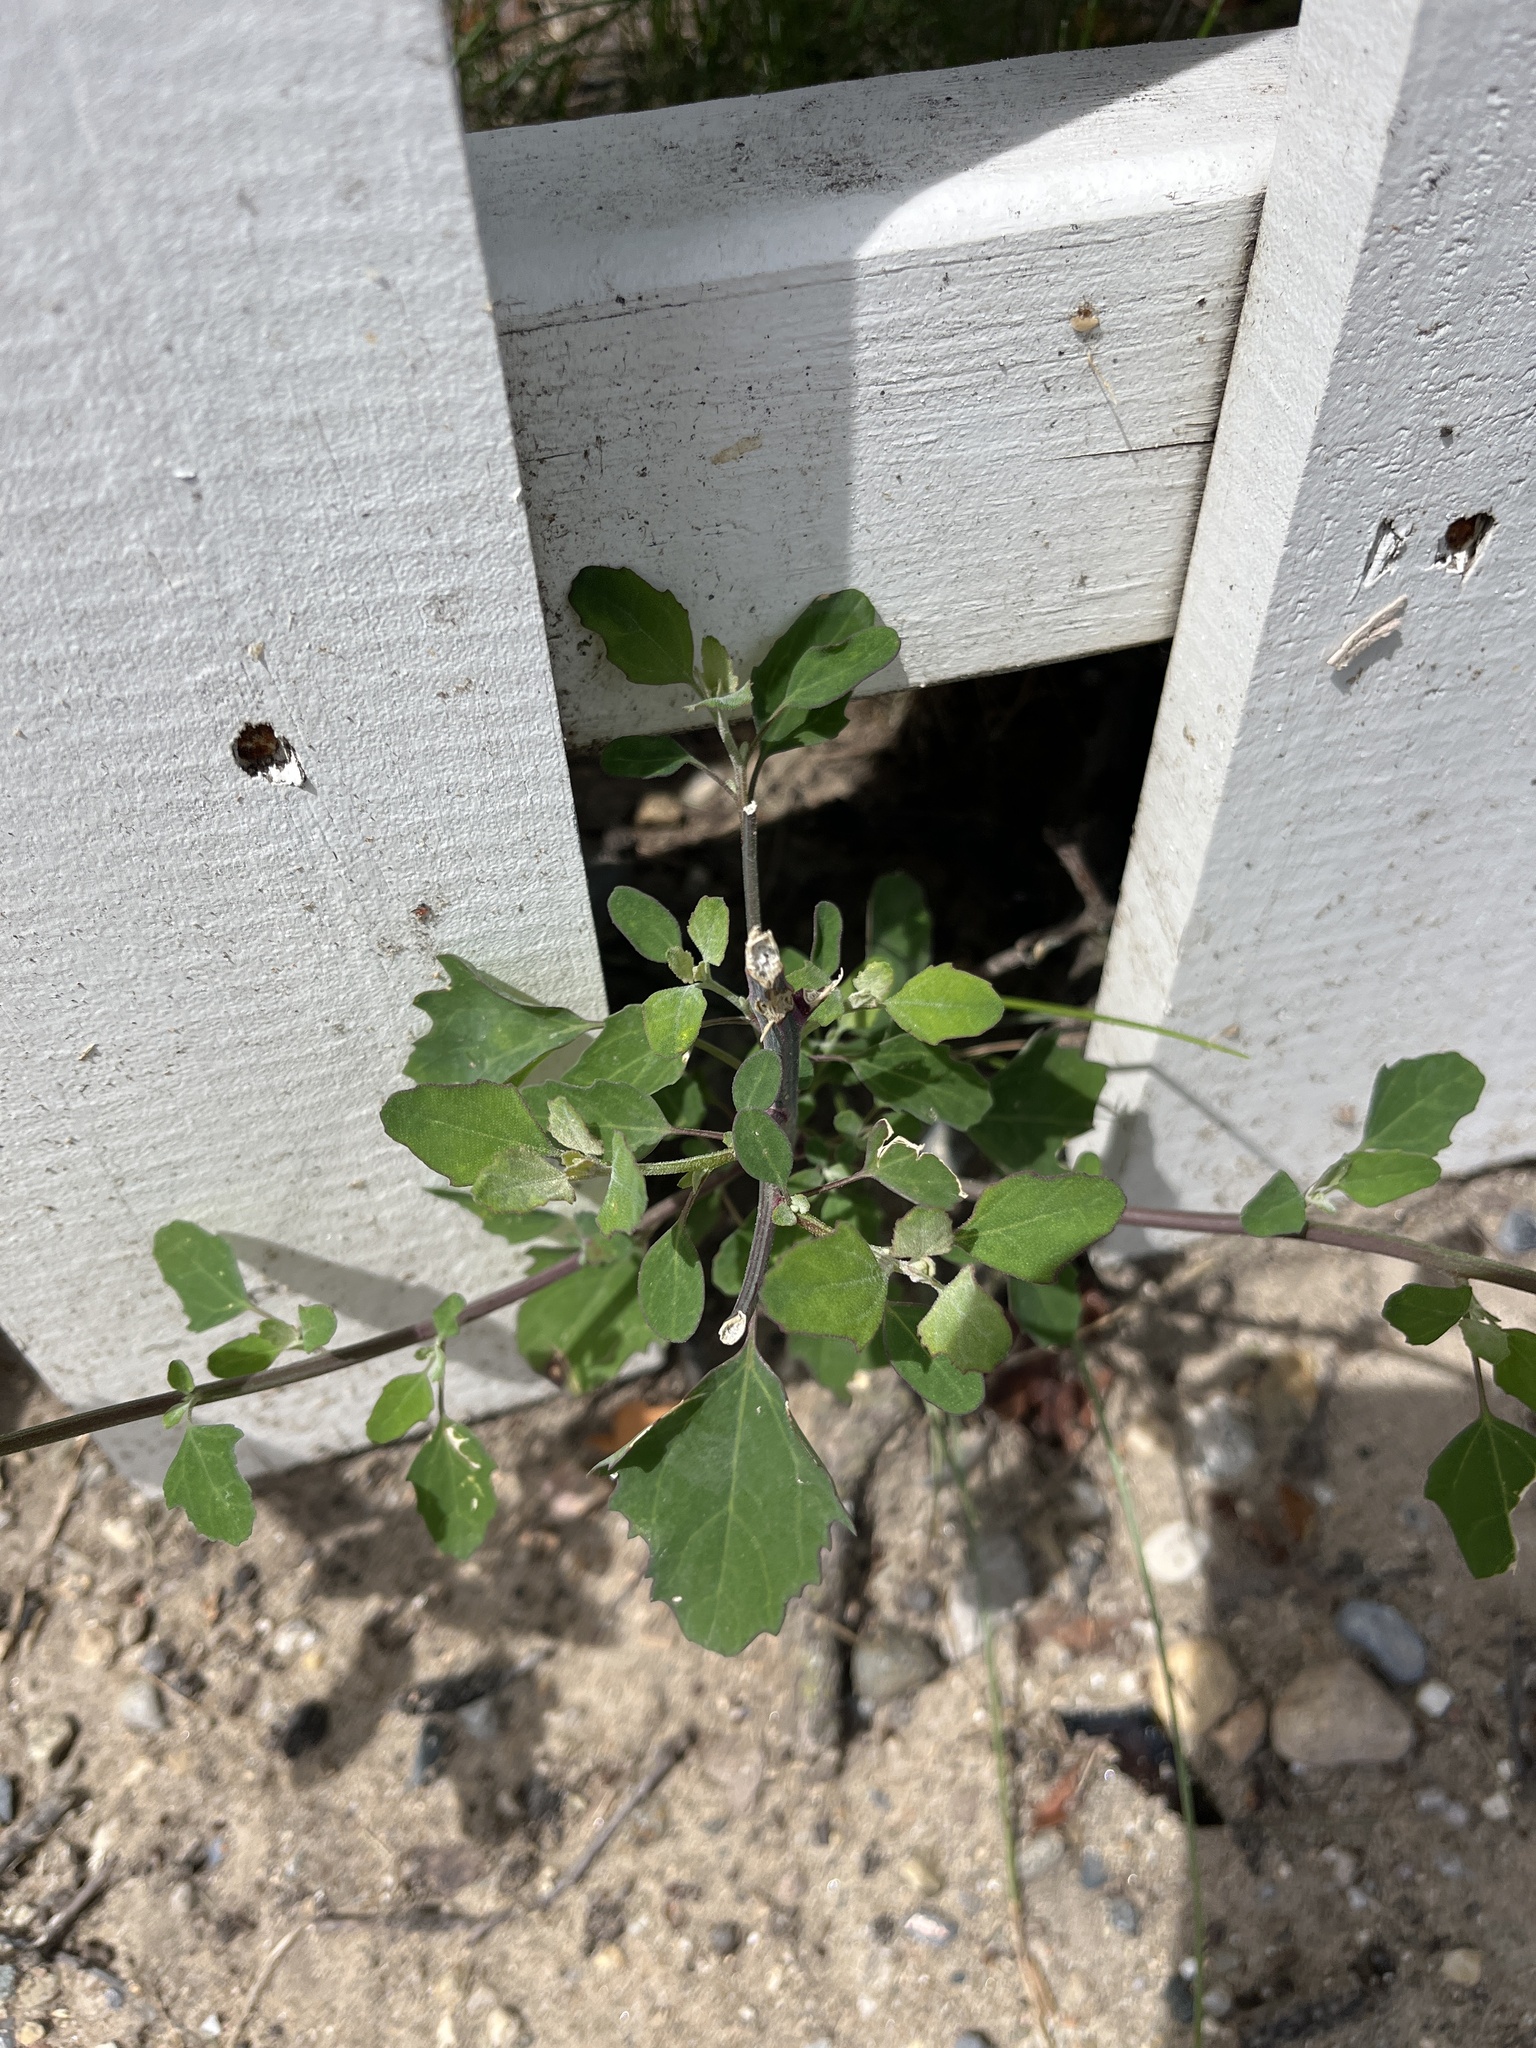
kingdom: Plantae
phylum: Tracheophyta
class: Magnoliopsida
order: Caryophyllales
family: Amaranthaceae
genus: Chenopodium
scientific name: Chenopodium album
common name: Fat-hen
